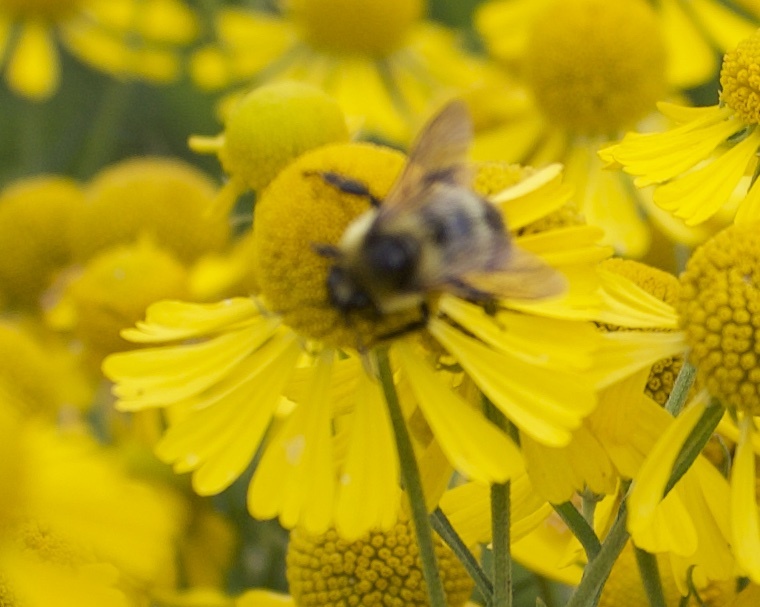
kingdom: Animalia
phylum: Arthropoda
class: Insecta
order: Hymenoptera
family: Apidae
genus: Bombus
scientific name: Bombus rufocinctus
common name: Red-belted bumble bee
